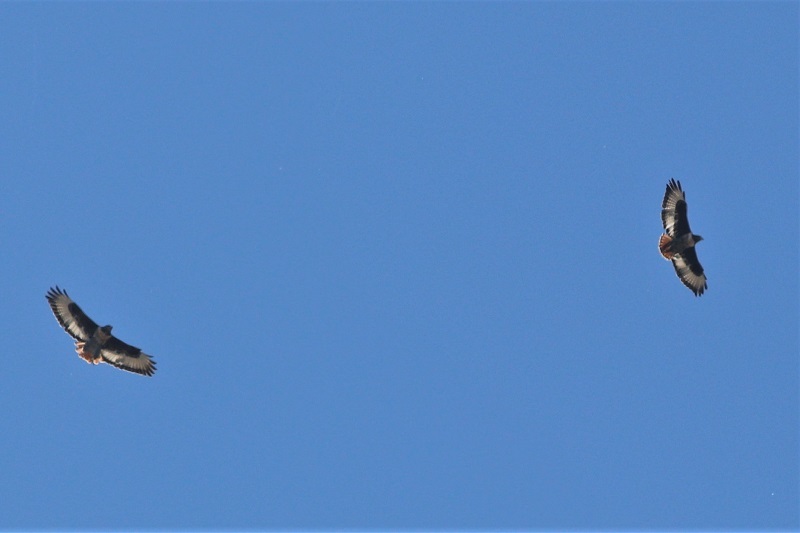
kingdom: Animalia
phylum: Chordata
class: Aves
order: Accipitriformes
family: Accipitridae
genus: Buteo
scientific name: Buteo rufofuscus
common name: Jackal buzzard
